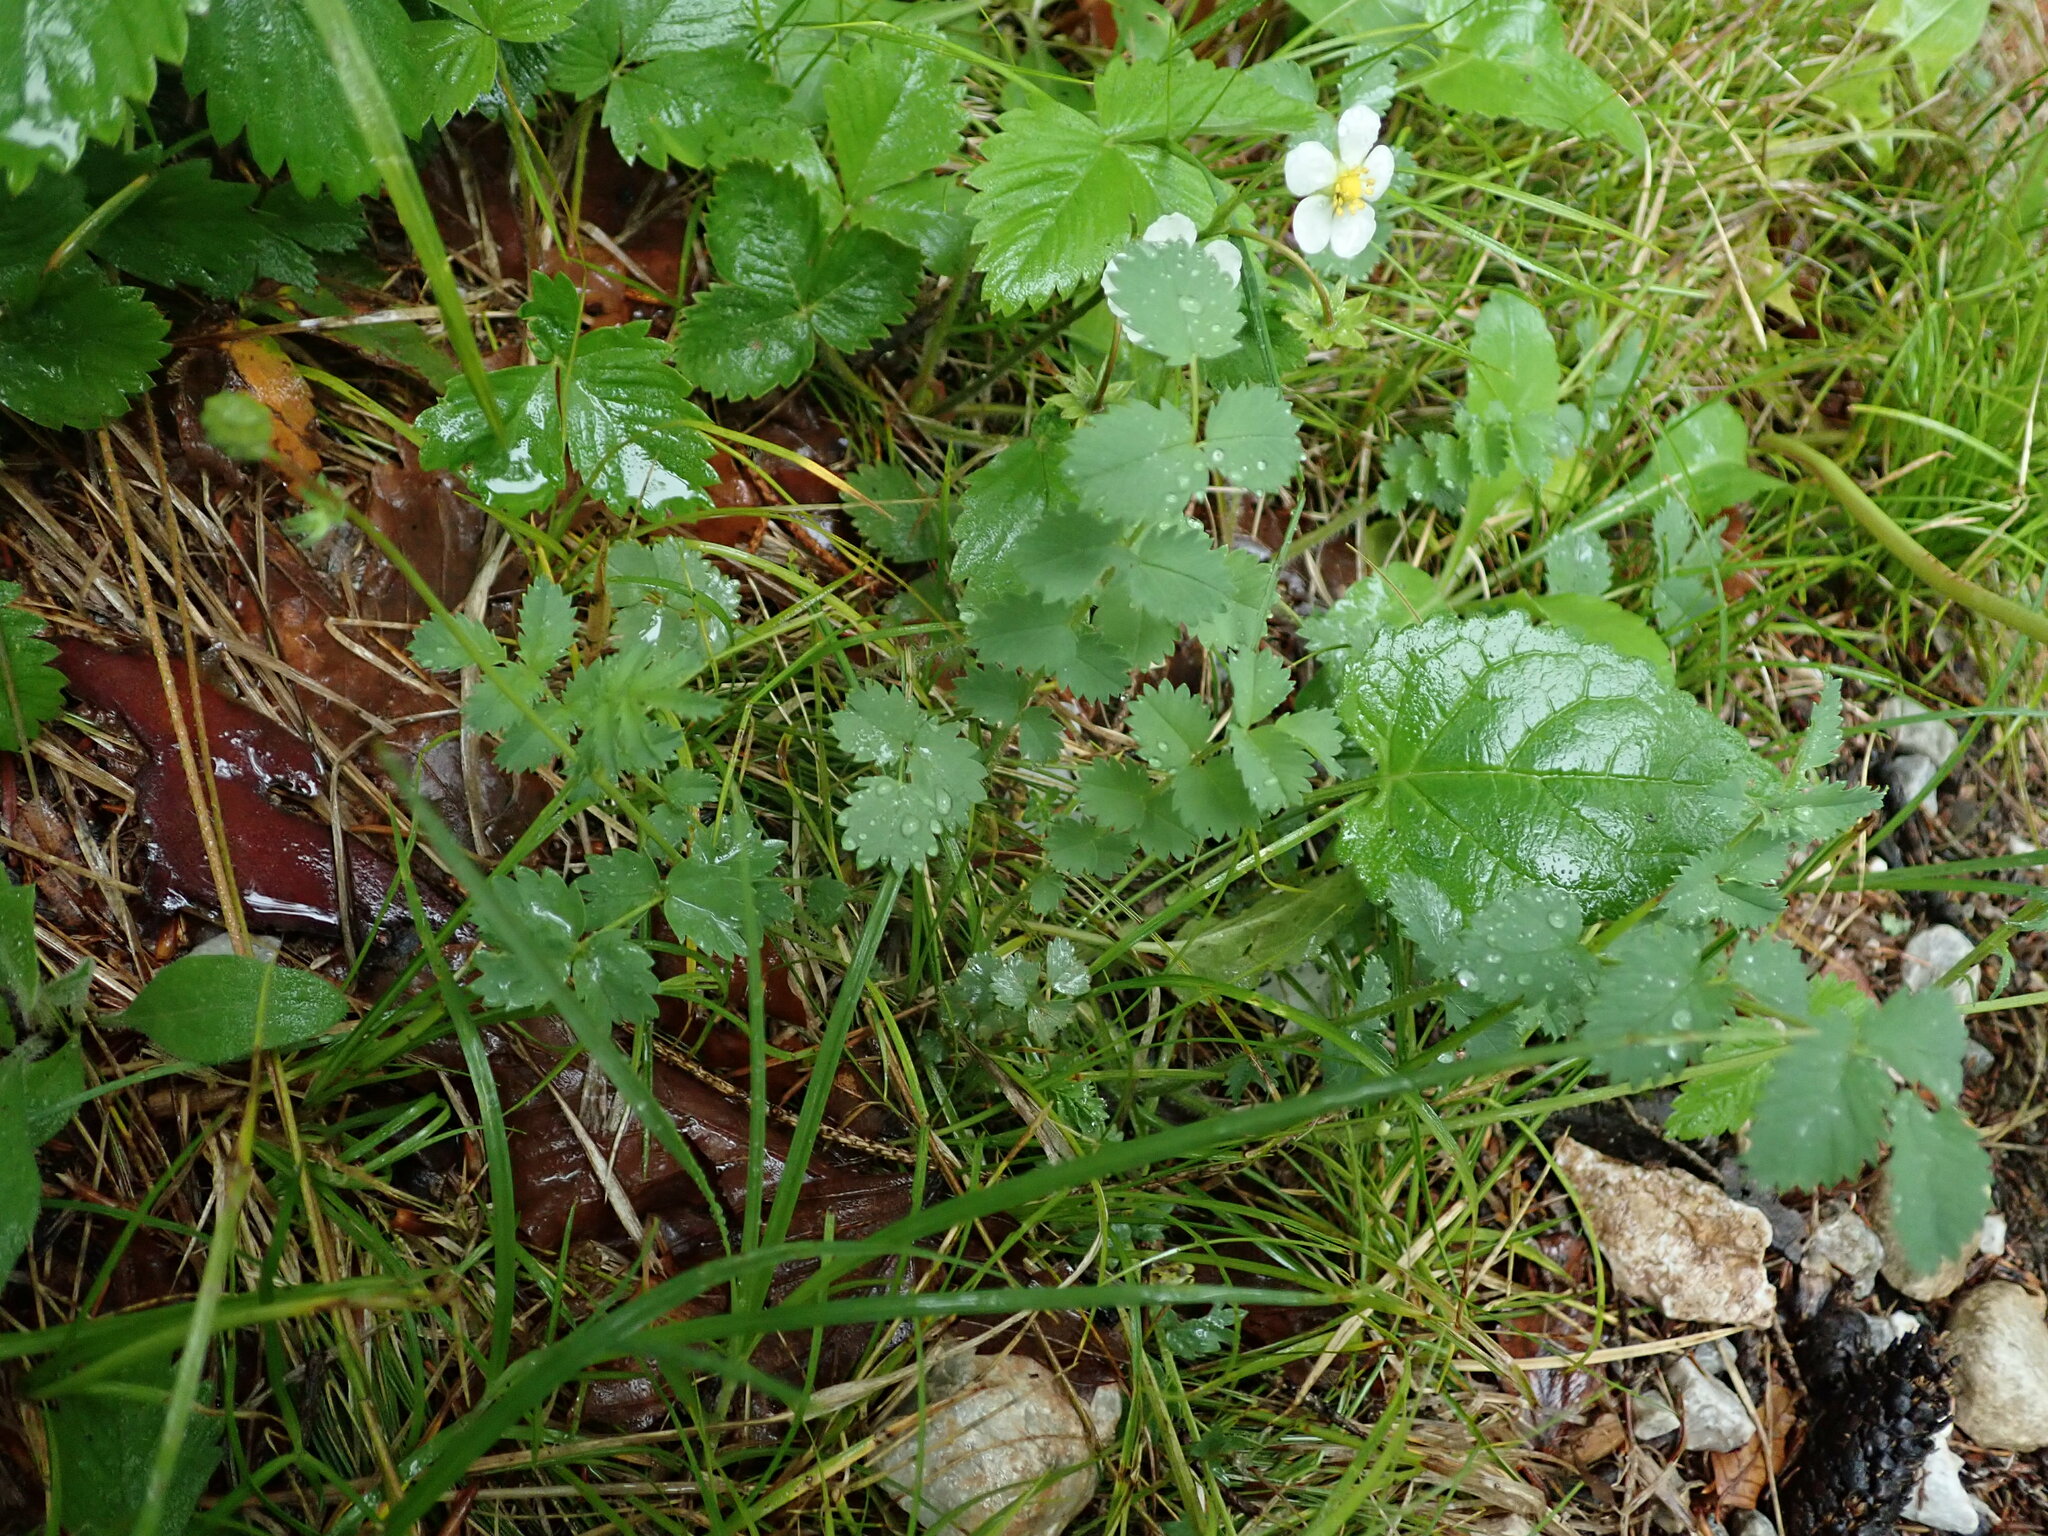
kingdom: Plantae
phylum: Tracheophyta
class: Magnoliopsida
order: Rosales
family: Rosaceae
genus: Poterium
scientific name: Poterium sanguisorba
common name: Salad burnet
